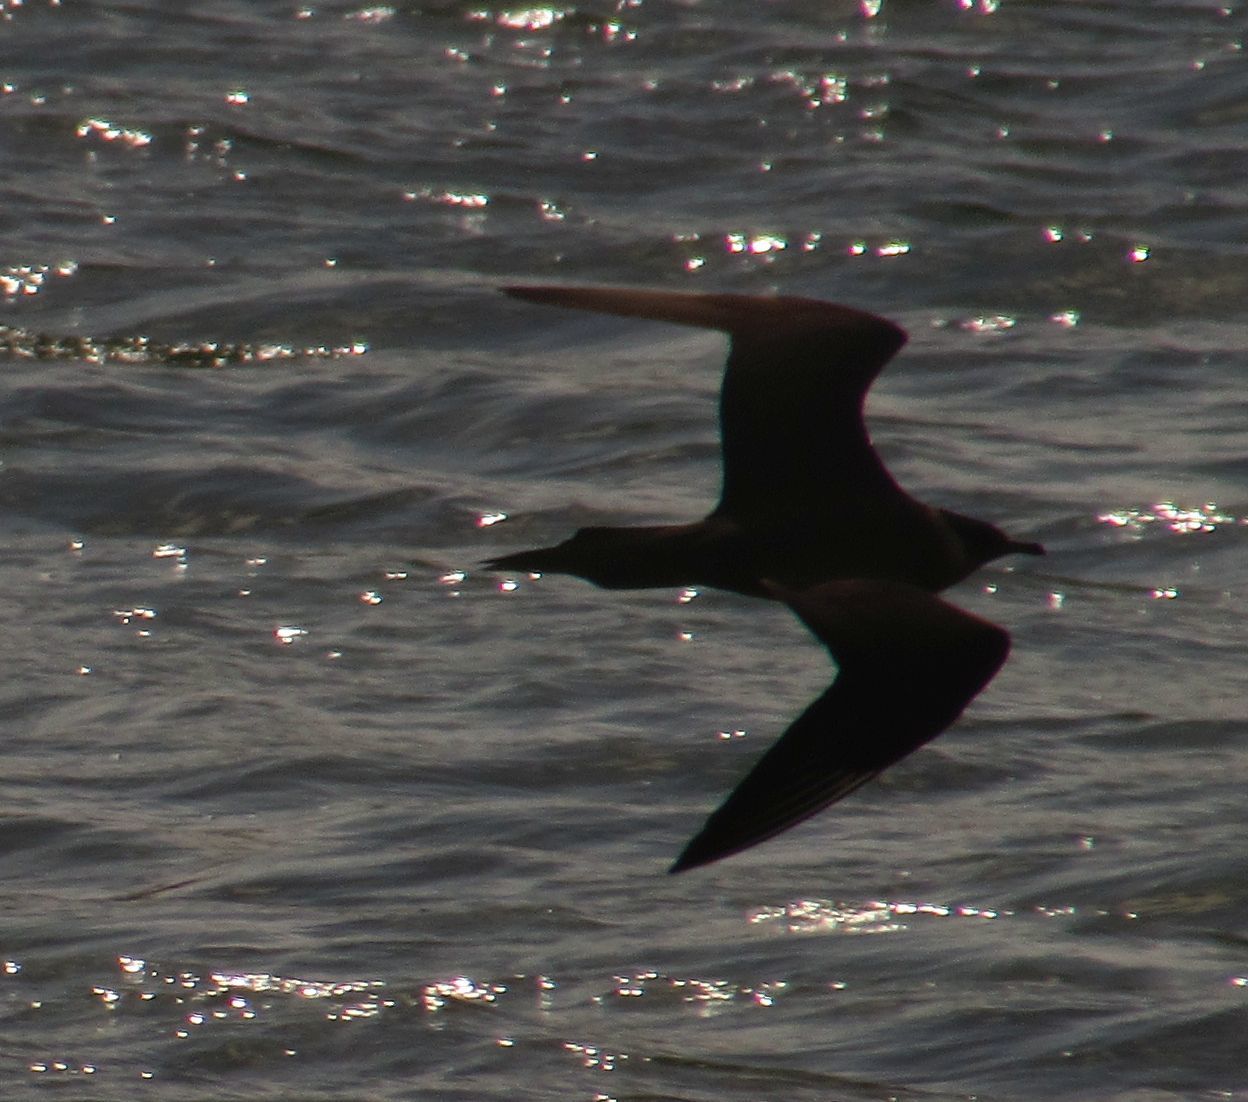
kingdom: Animalia
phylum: Chordata
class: Aves
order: Charadriiformes
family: Stercorariidae
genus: Stercorarius
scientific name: Stercorarius parasiticus
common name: Parasitic jaeger
